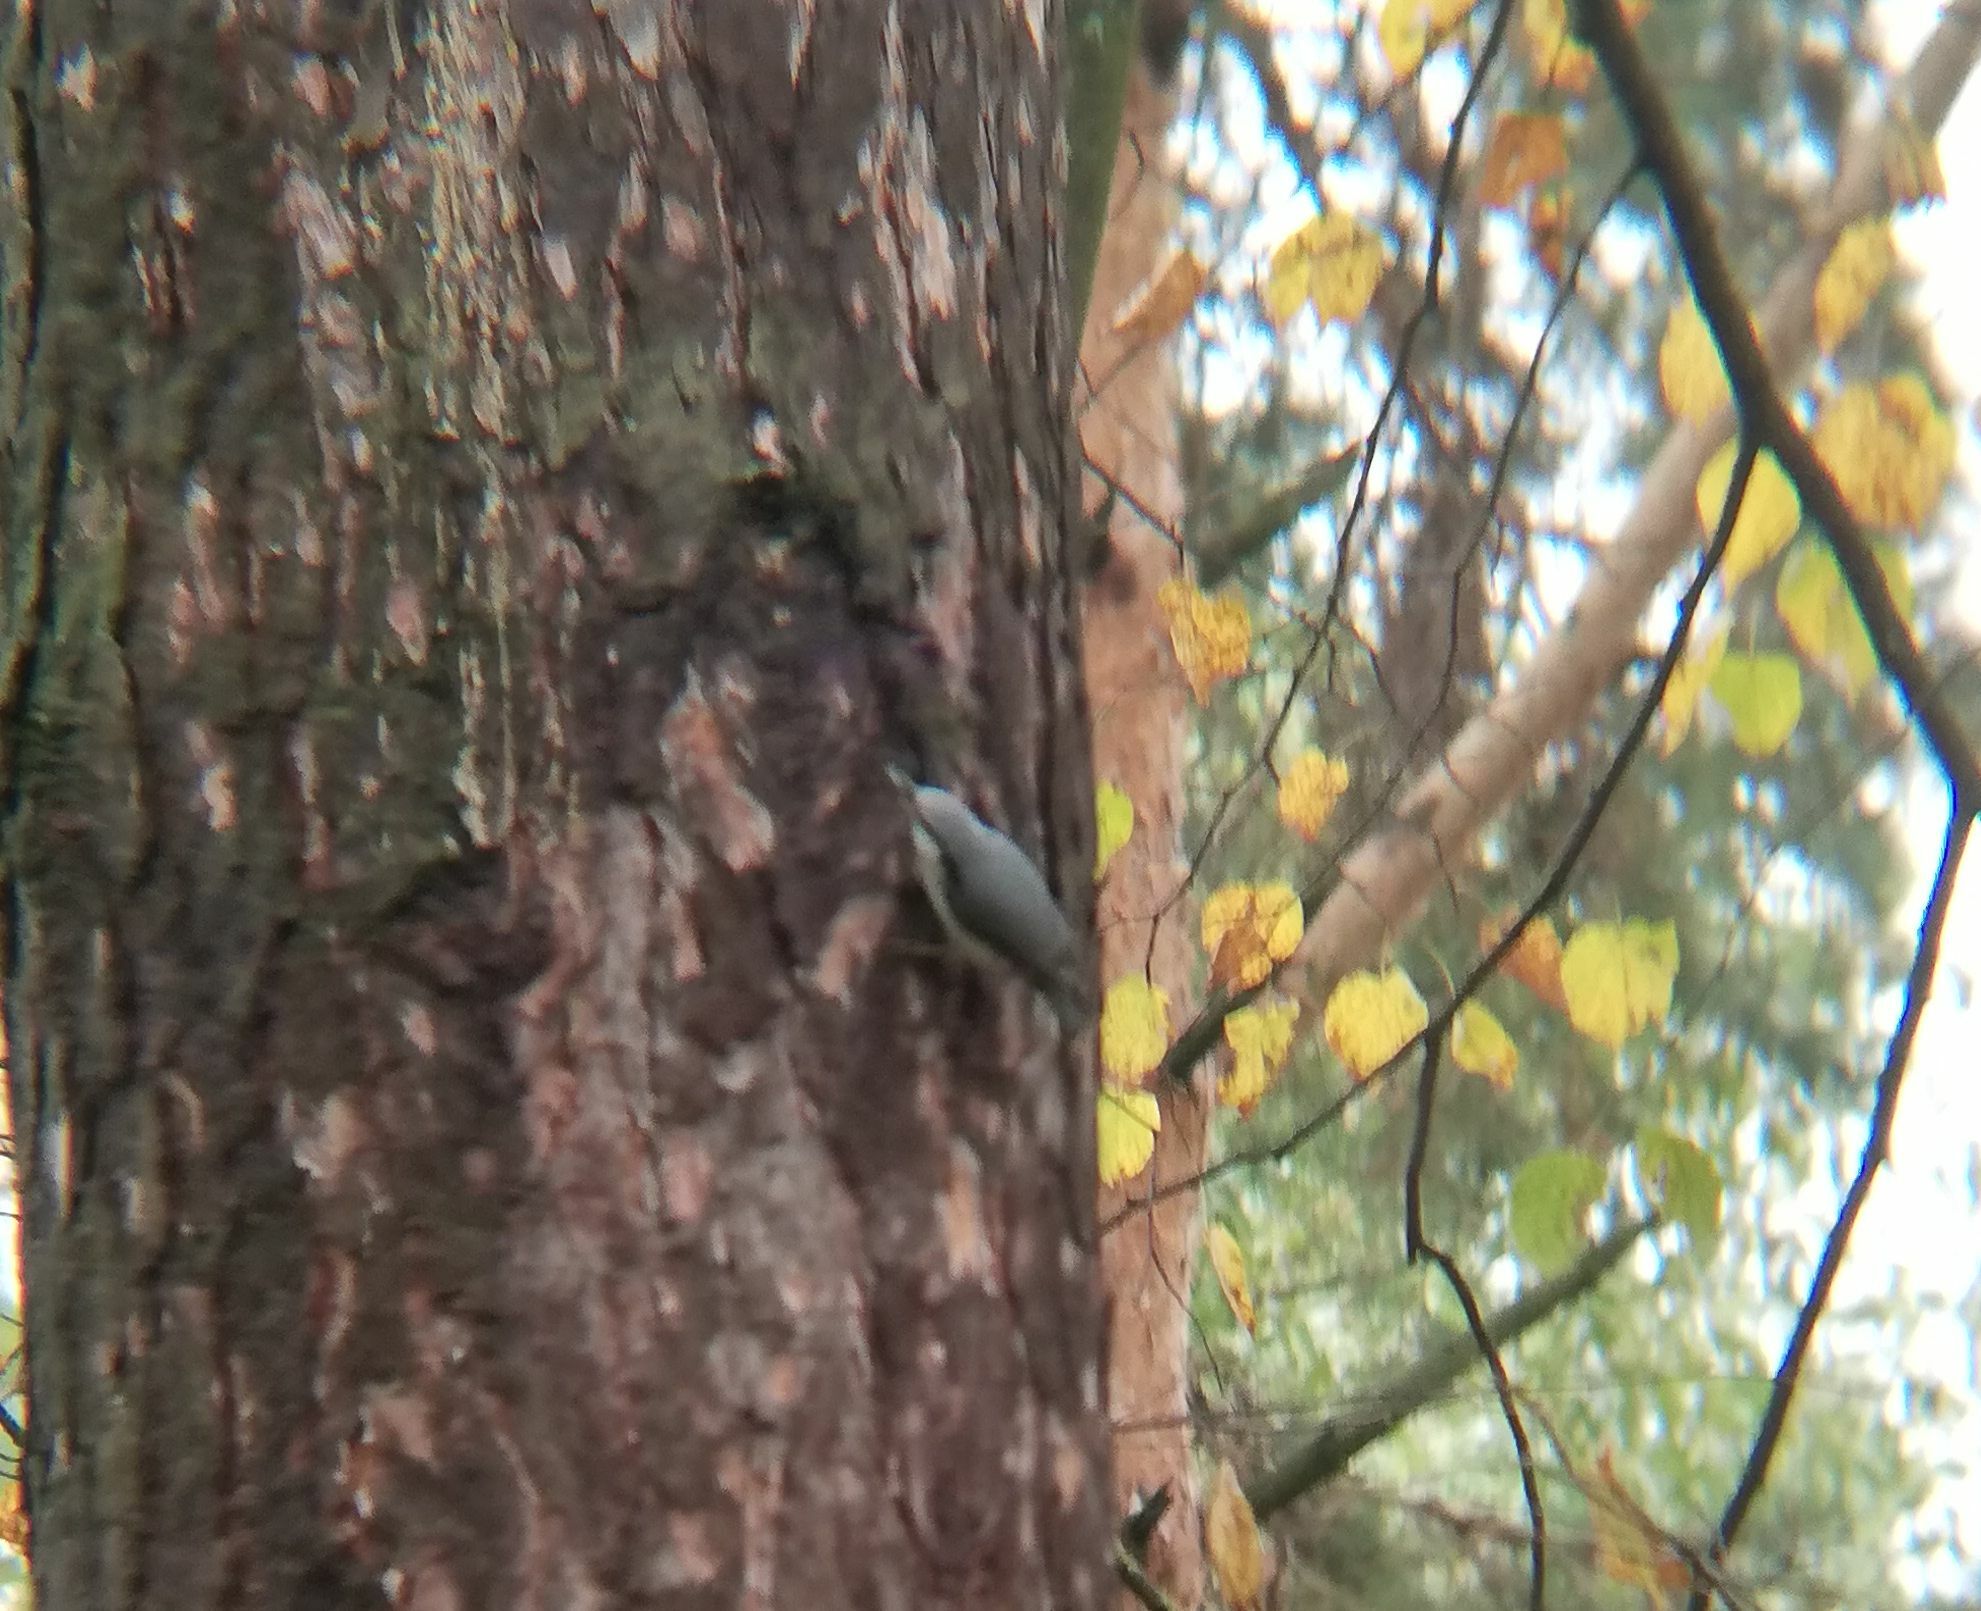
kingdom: Animalia
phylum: Chordata
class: Aves
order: Passeriformes
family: Sittidae
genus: Sitta
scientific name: Sitta europaea
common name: Eurasian nuthatch
